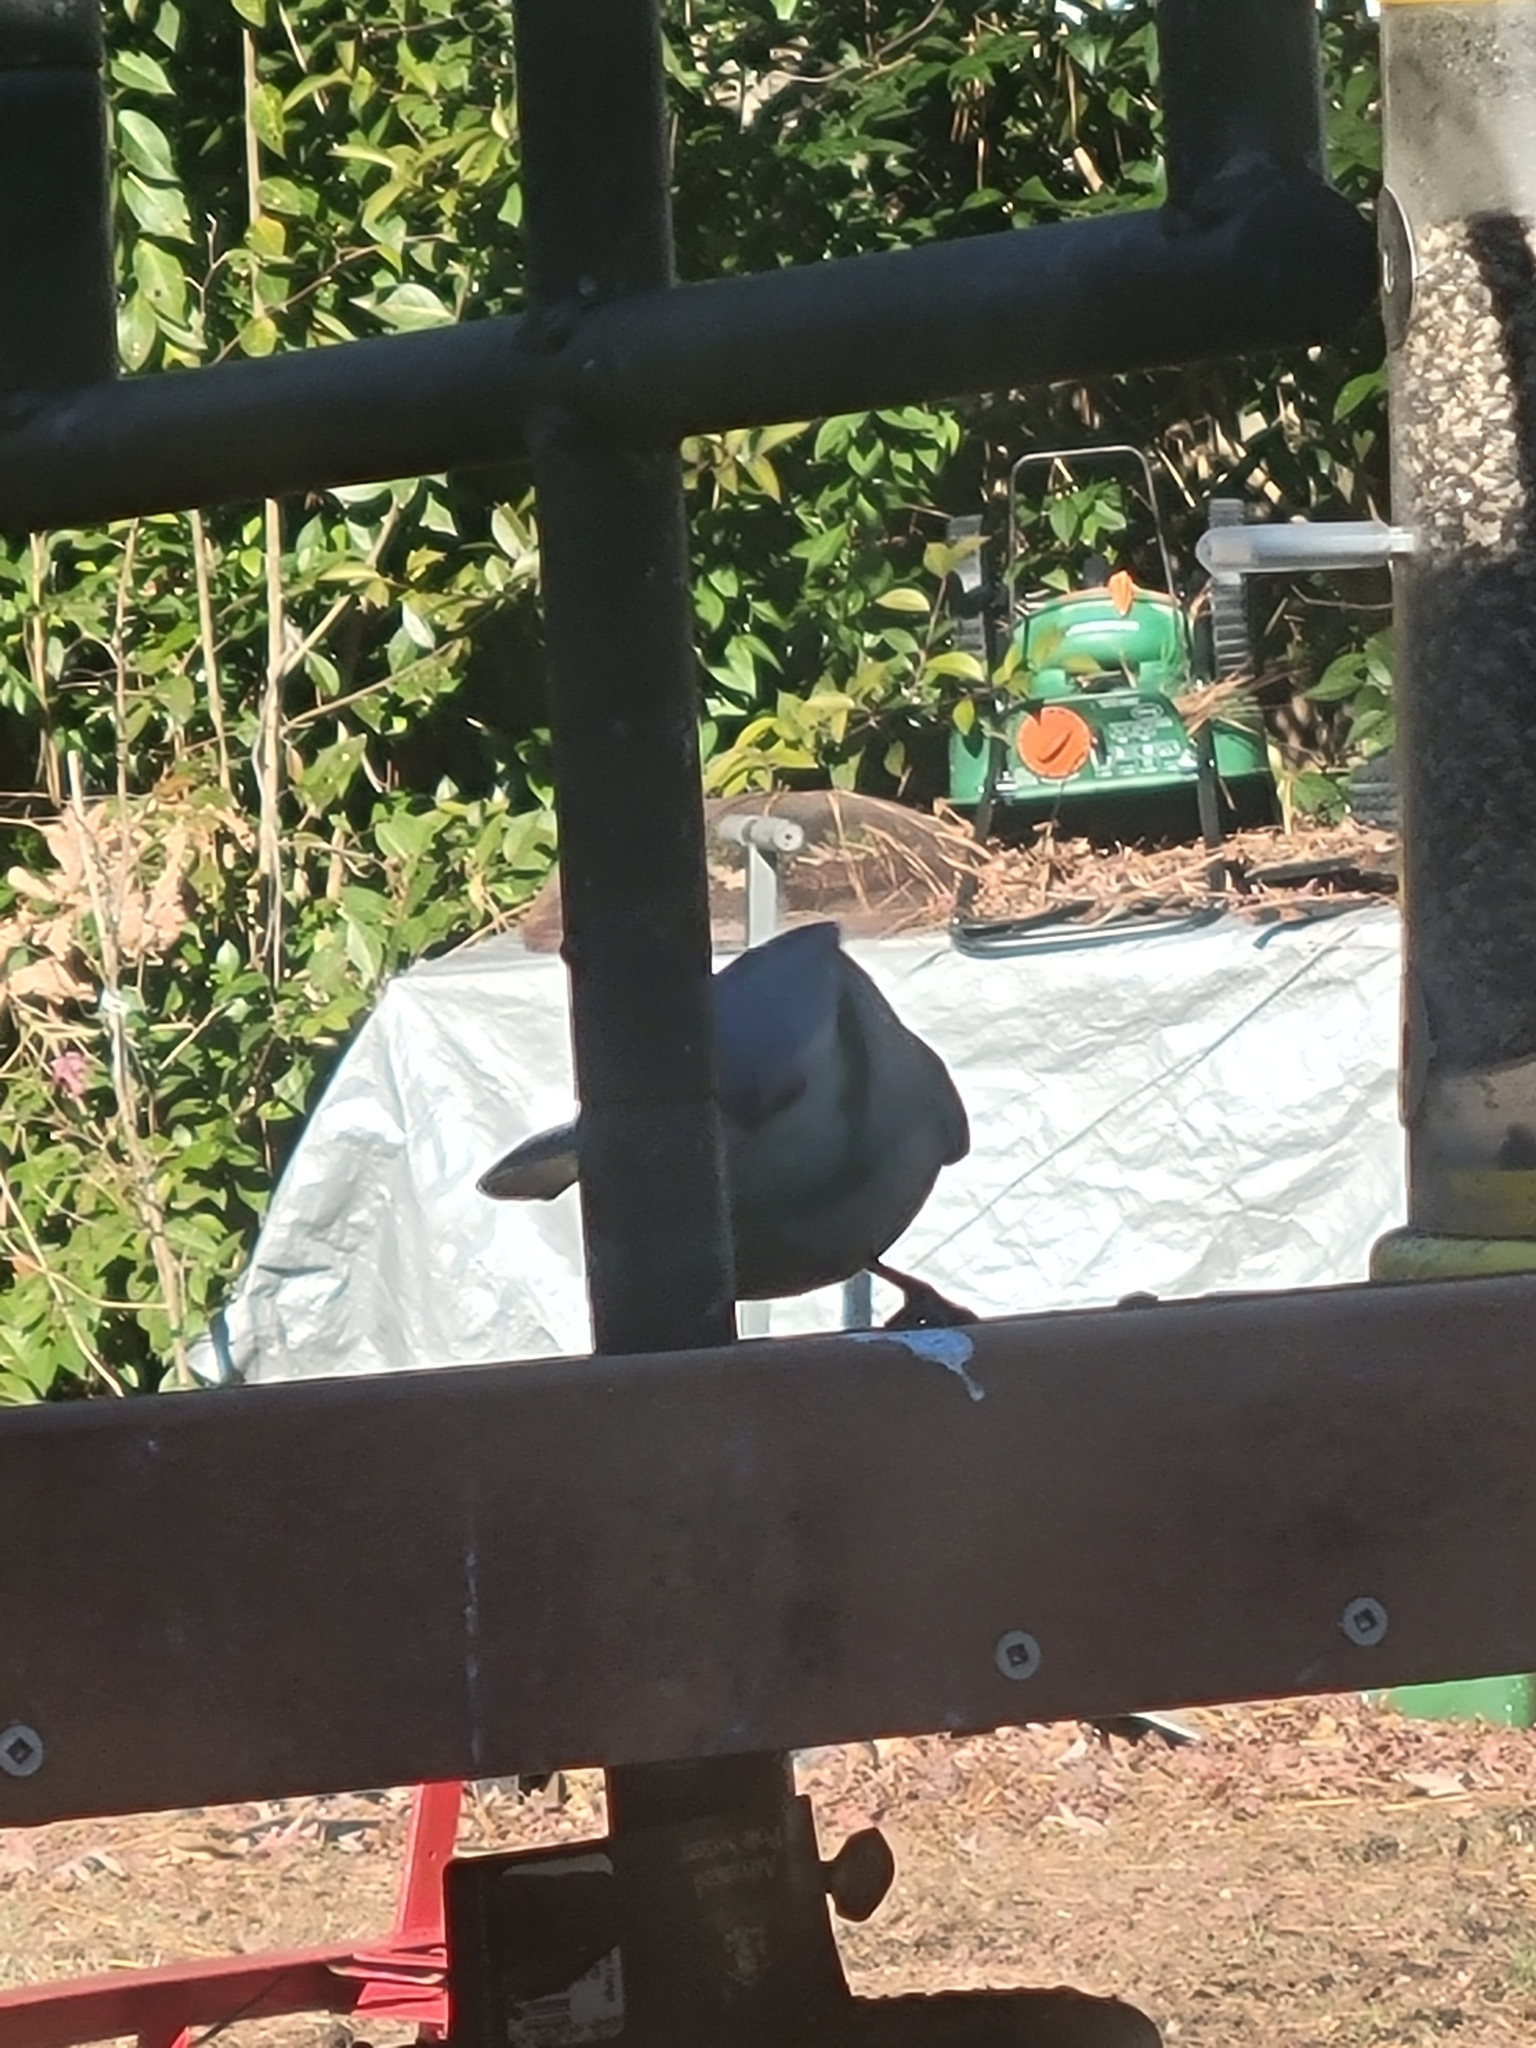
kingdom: Animalia
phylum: Chordata
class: Aves
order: Passeriformes
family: Corvidae
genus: Cyanocitta
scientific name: Cyanocitta cristata
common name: Blue jay
